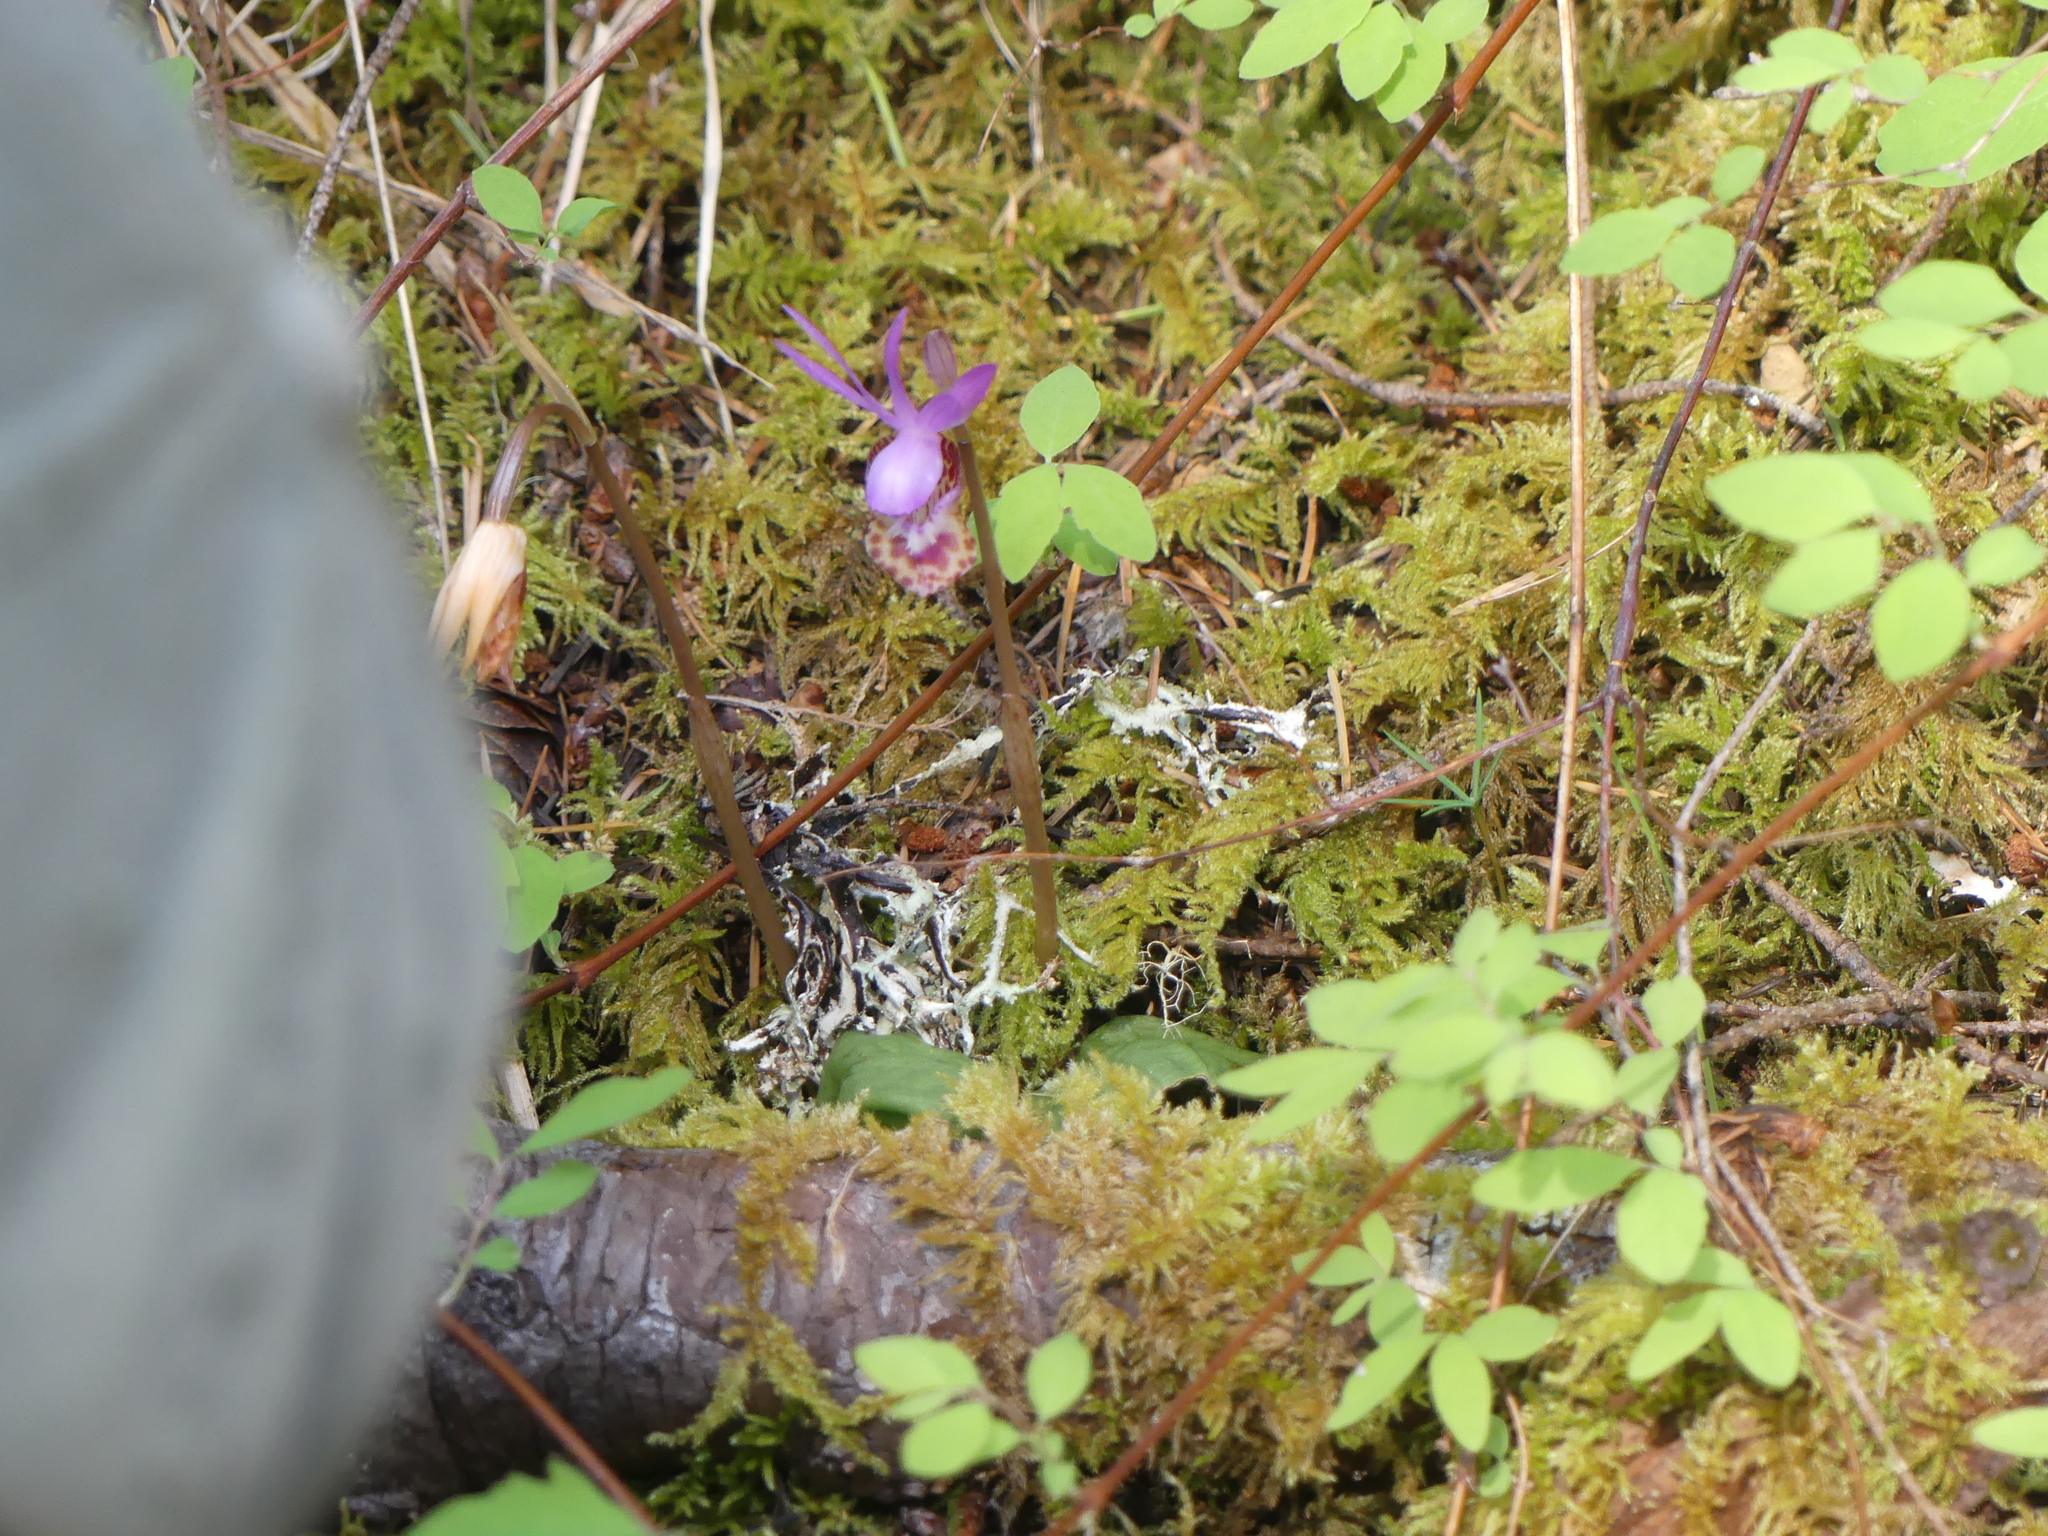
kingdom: Plantae
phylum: Tracheophyta
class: Liliopsida
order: Asparagales
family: Orchidaceae
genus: Calypso
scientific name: Calypso bulbosa
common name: Calypso
